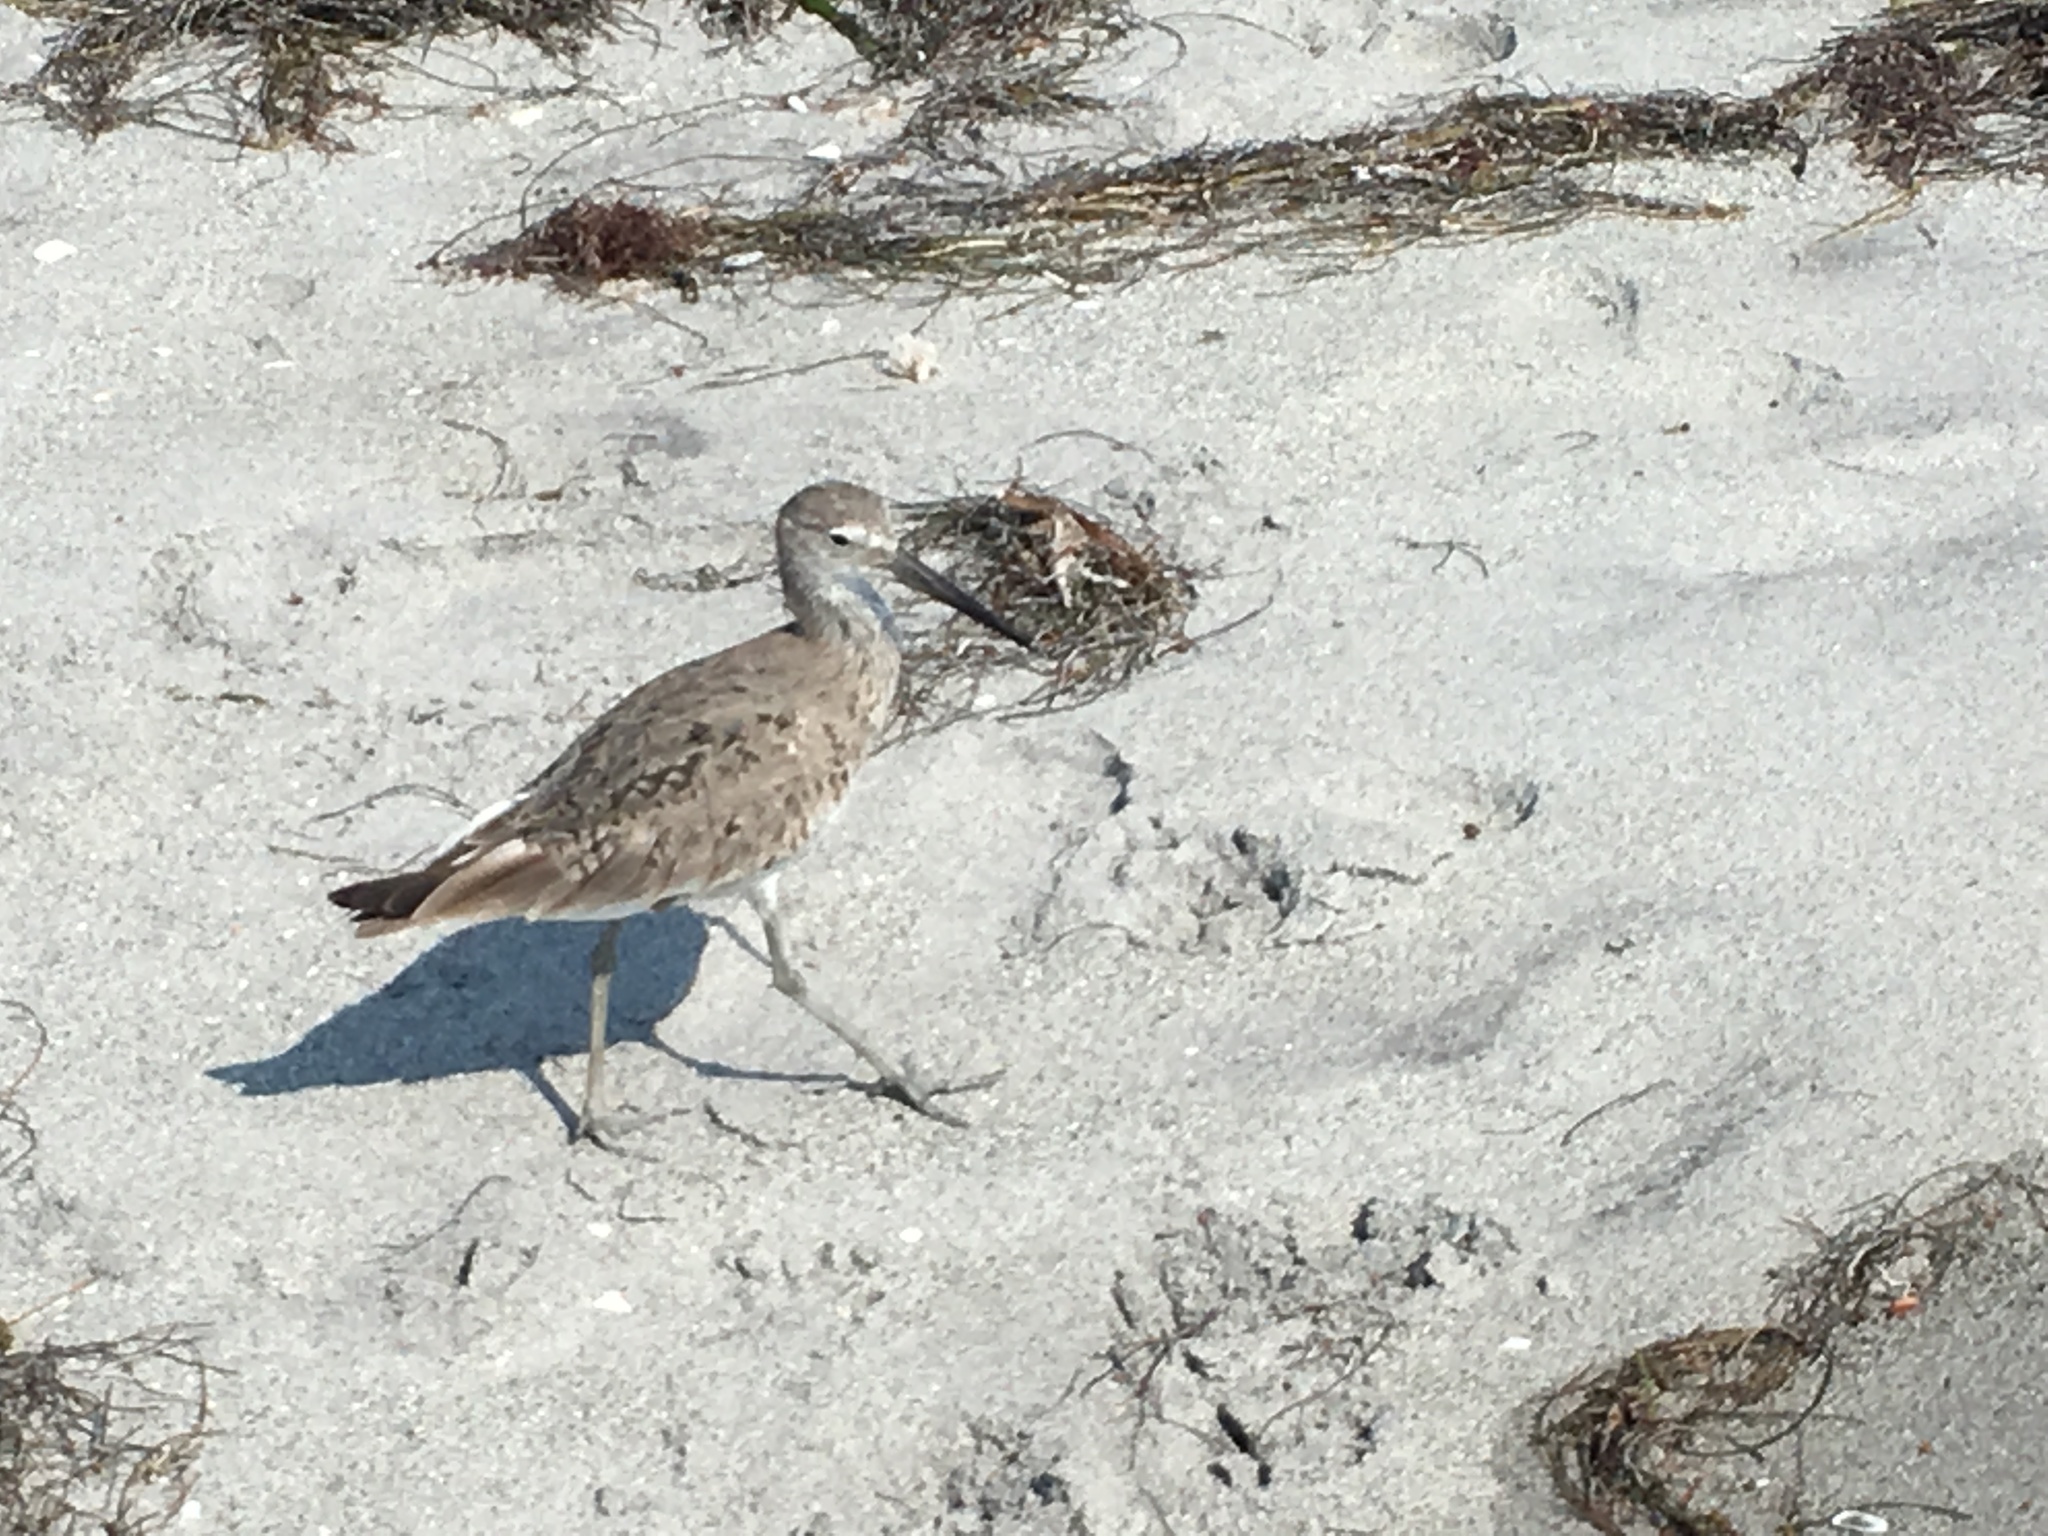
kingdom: Animalia
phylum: Chordata
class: Aves
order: Charadriiformes
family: Scolopacidae
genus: Tringa
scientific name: Tringa semipalmata
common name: Willet
